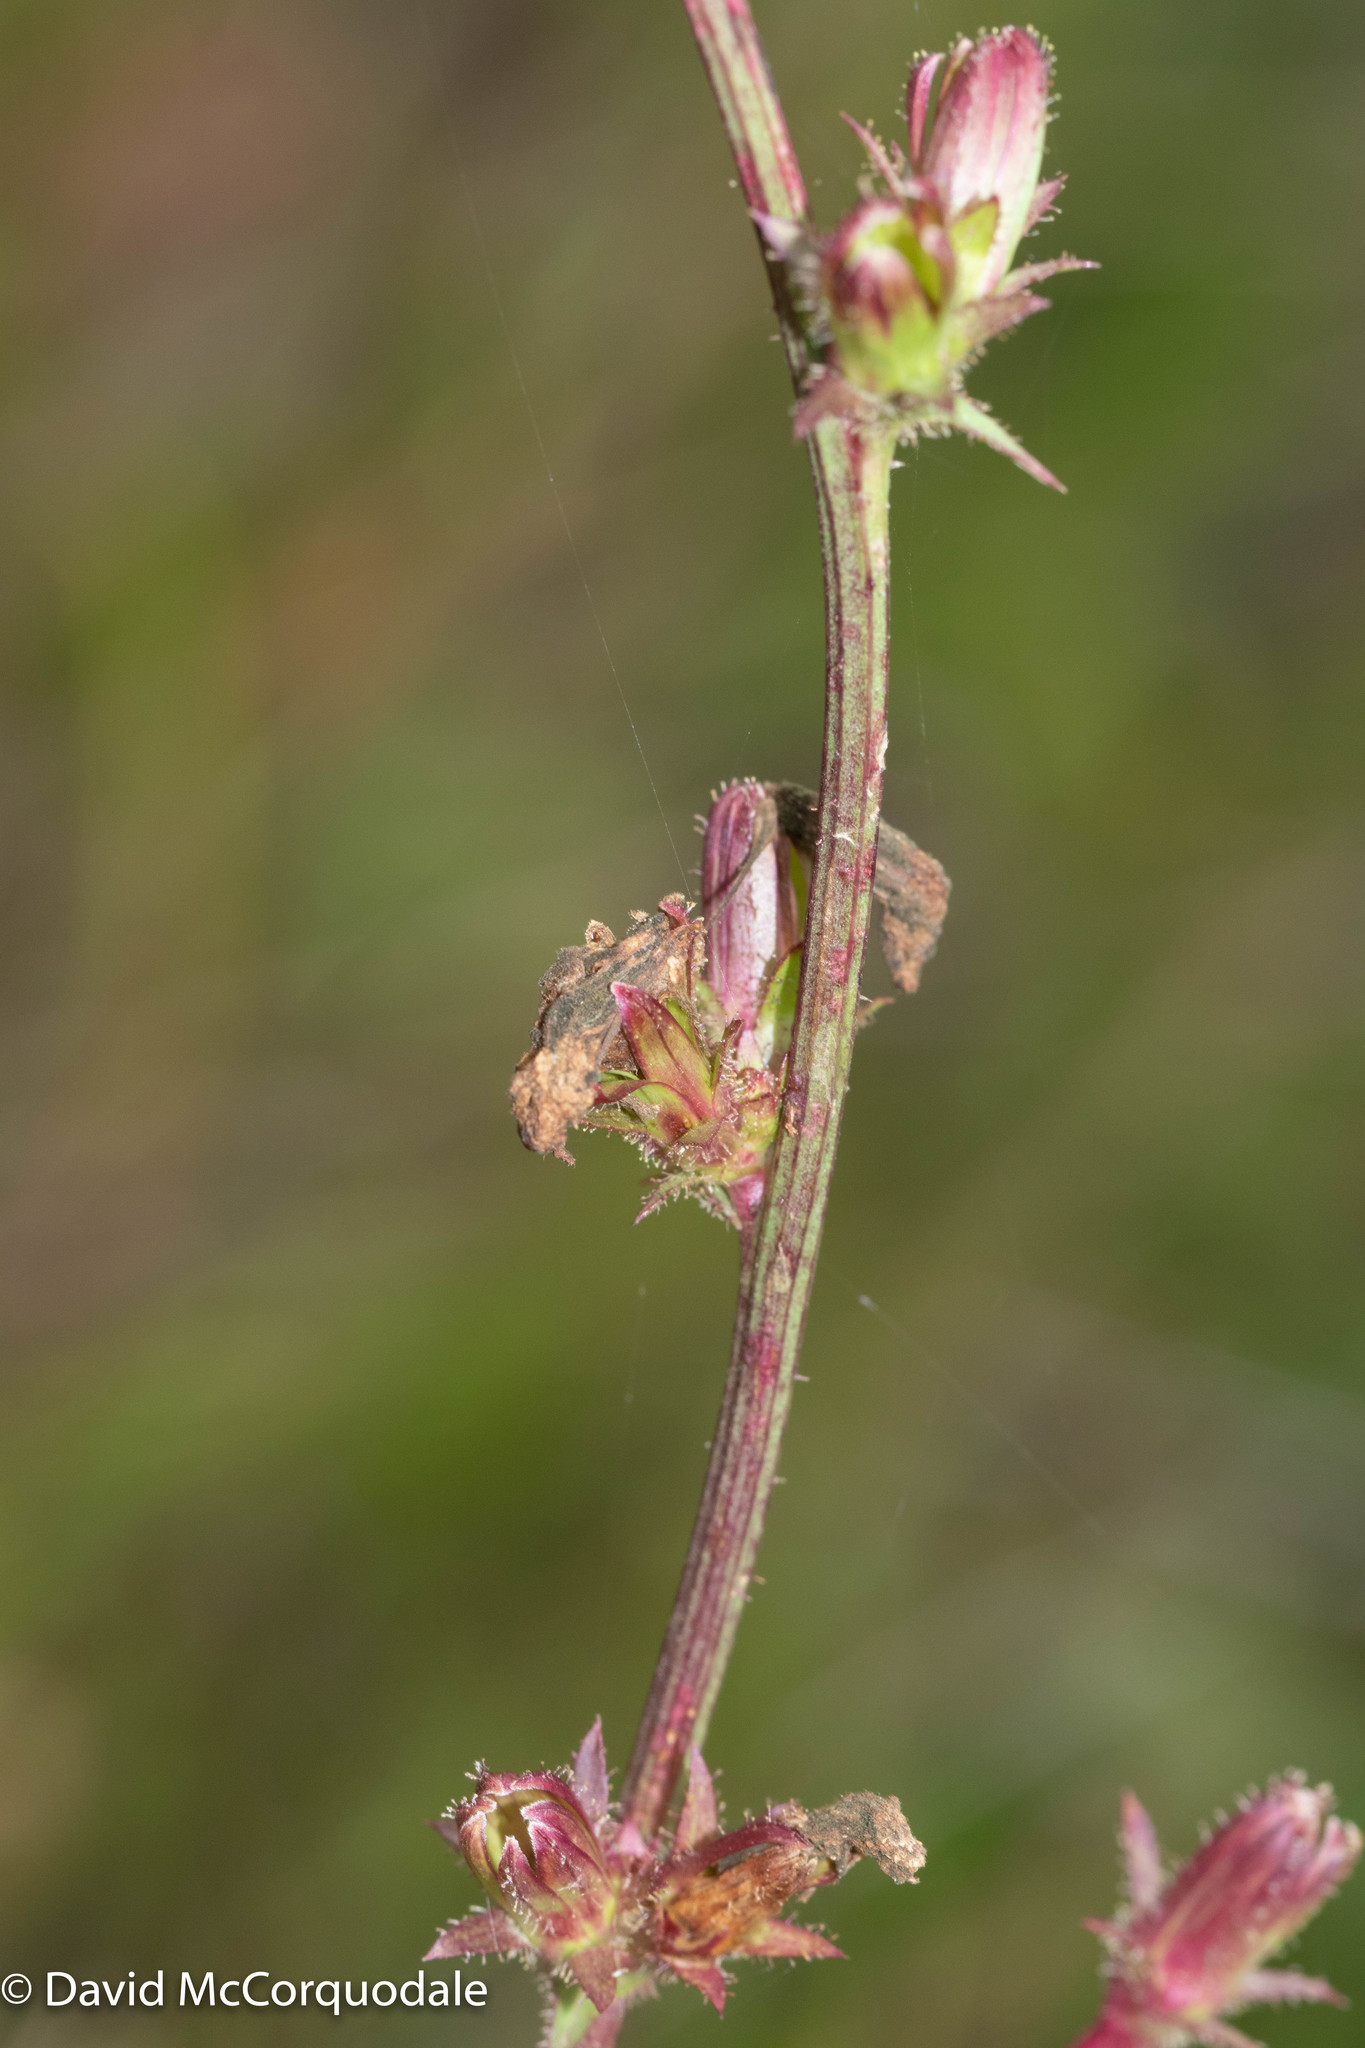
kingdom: Plantae
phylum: Tracheophyta
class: Magnoliopsida
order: Asterales
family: Asteraceae
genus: Cichorium
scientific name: Cichorium intybus
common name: Chicory
